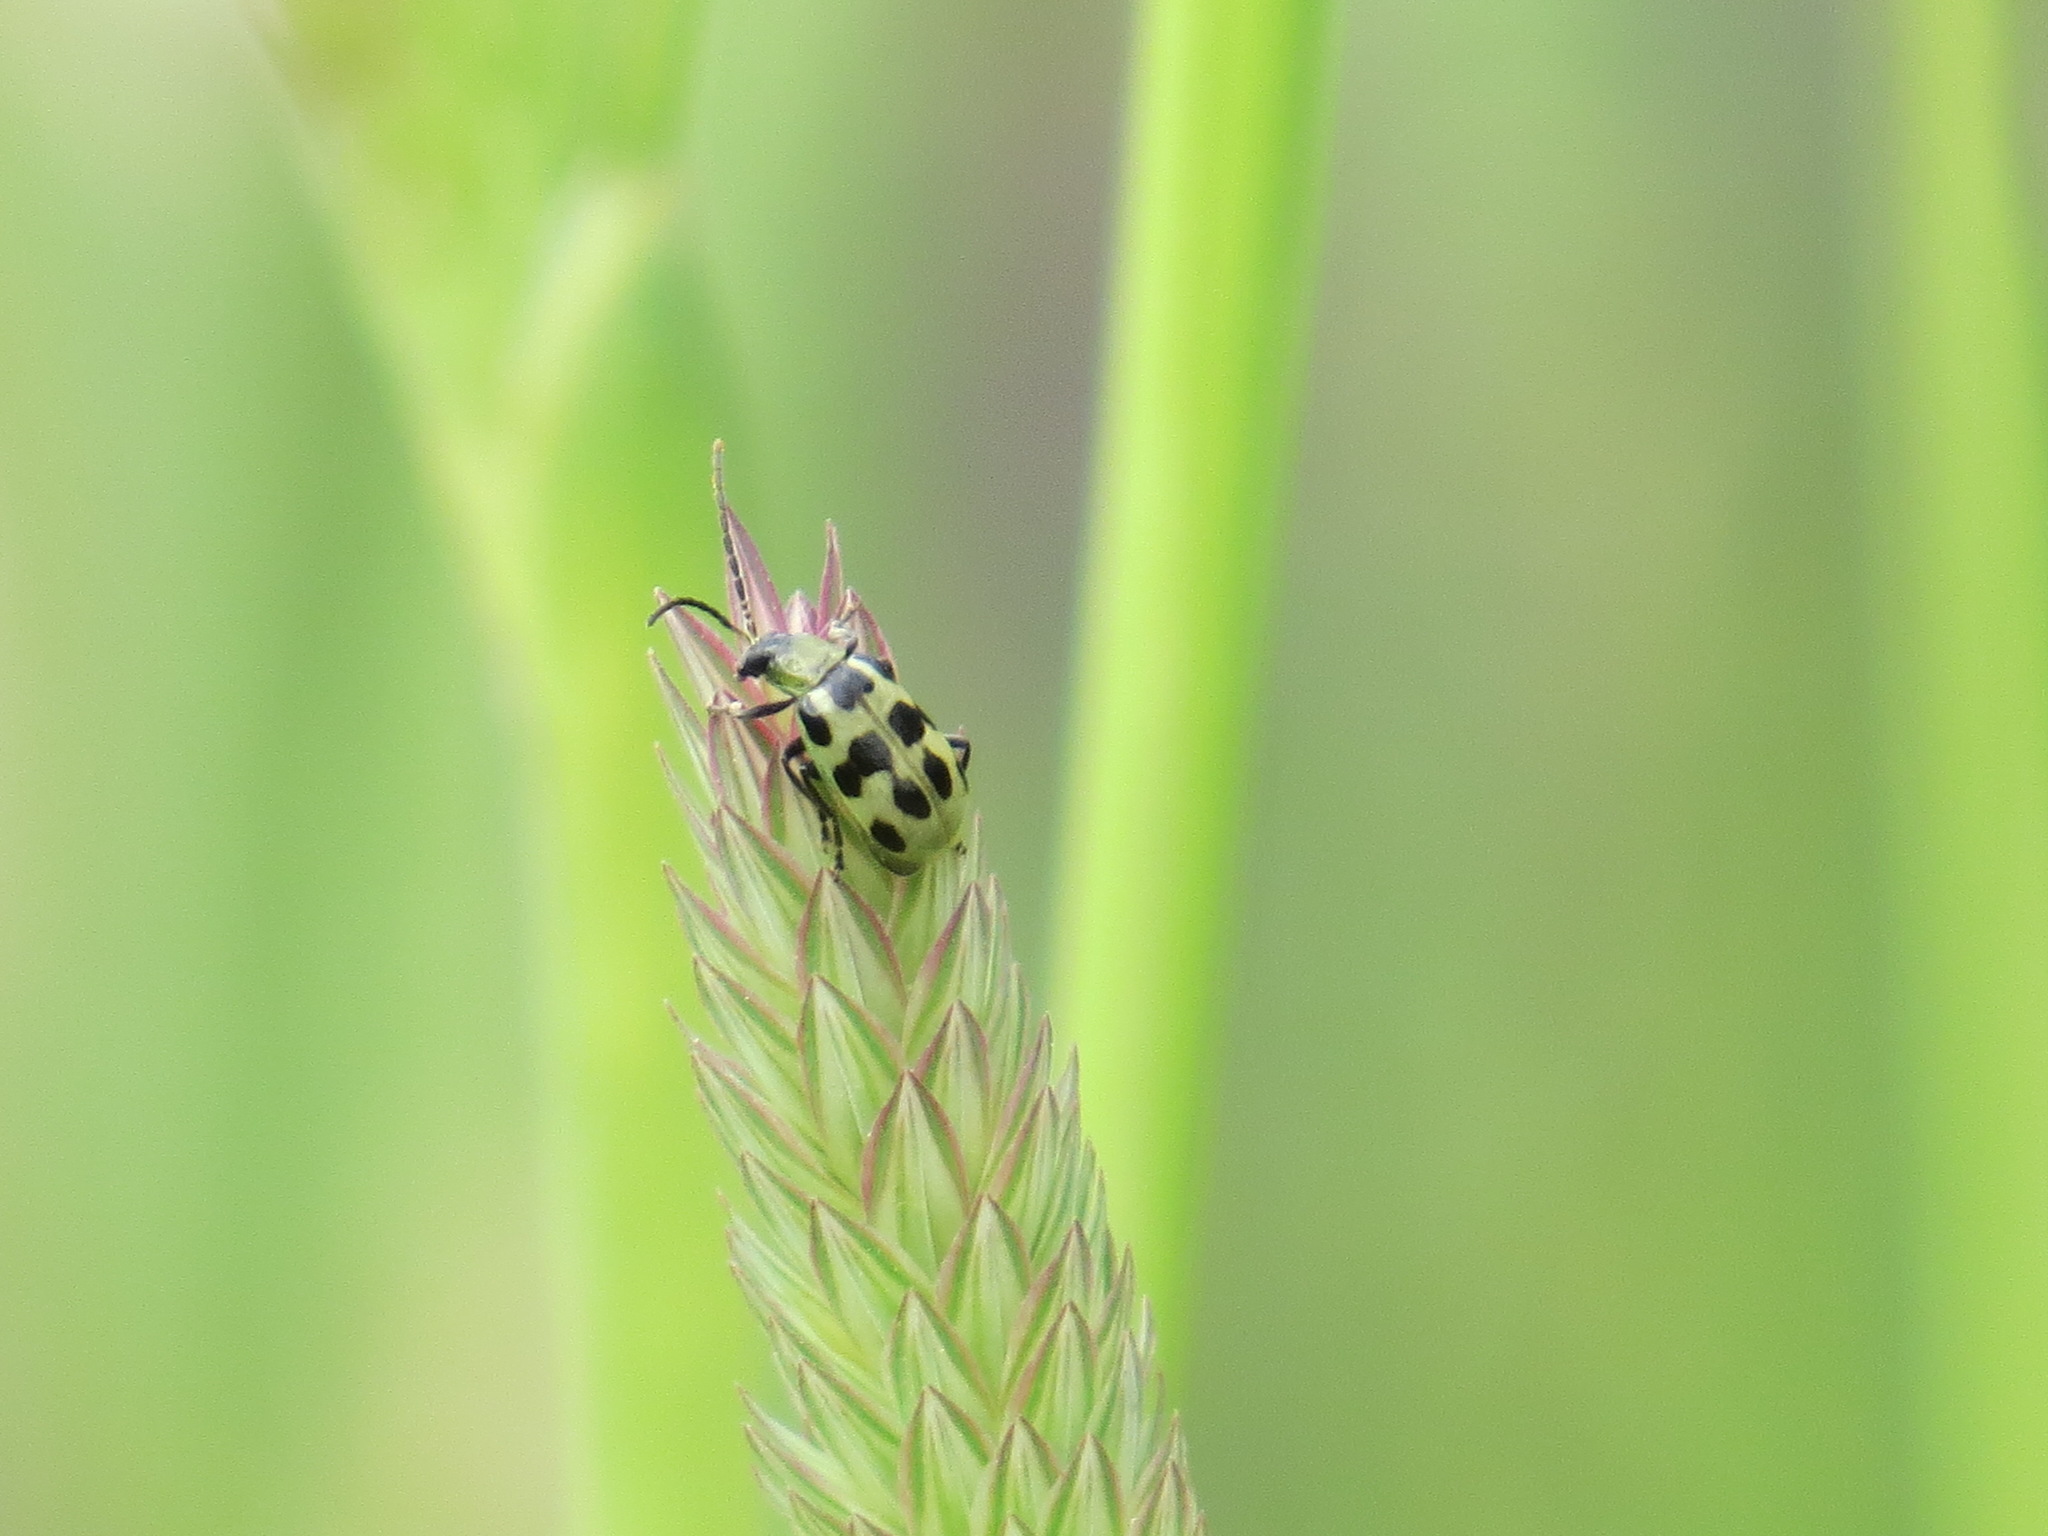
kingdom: Animalia
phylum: Arthropoda
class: Insecta
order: Coleoptera
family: Chrysomelidae
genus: Diabrotica
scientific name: Diabrotica undecimpunctata
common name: Spotted cucumber beetle
